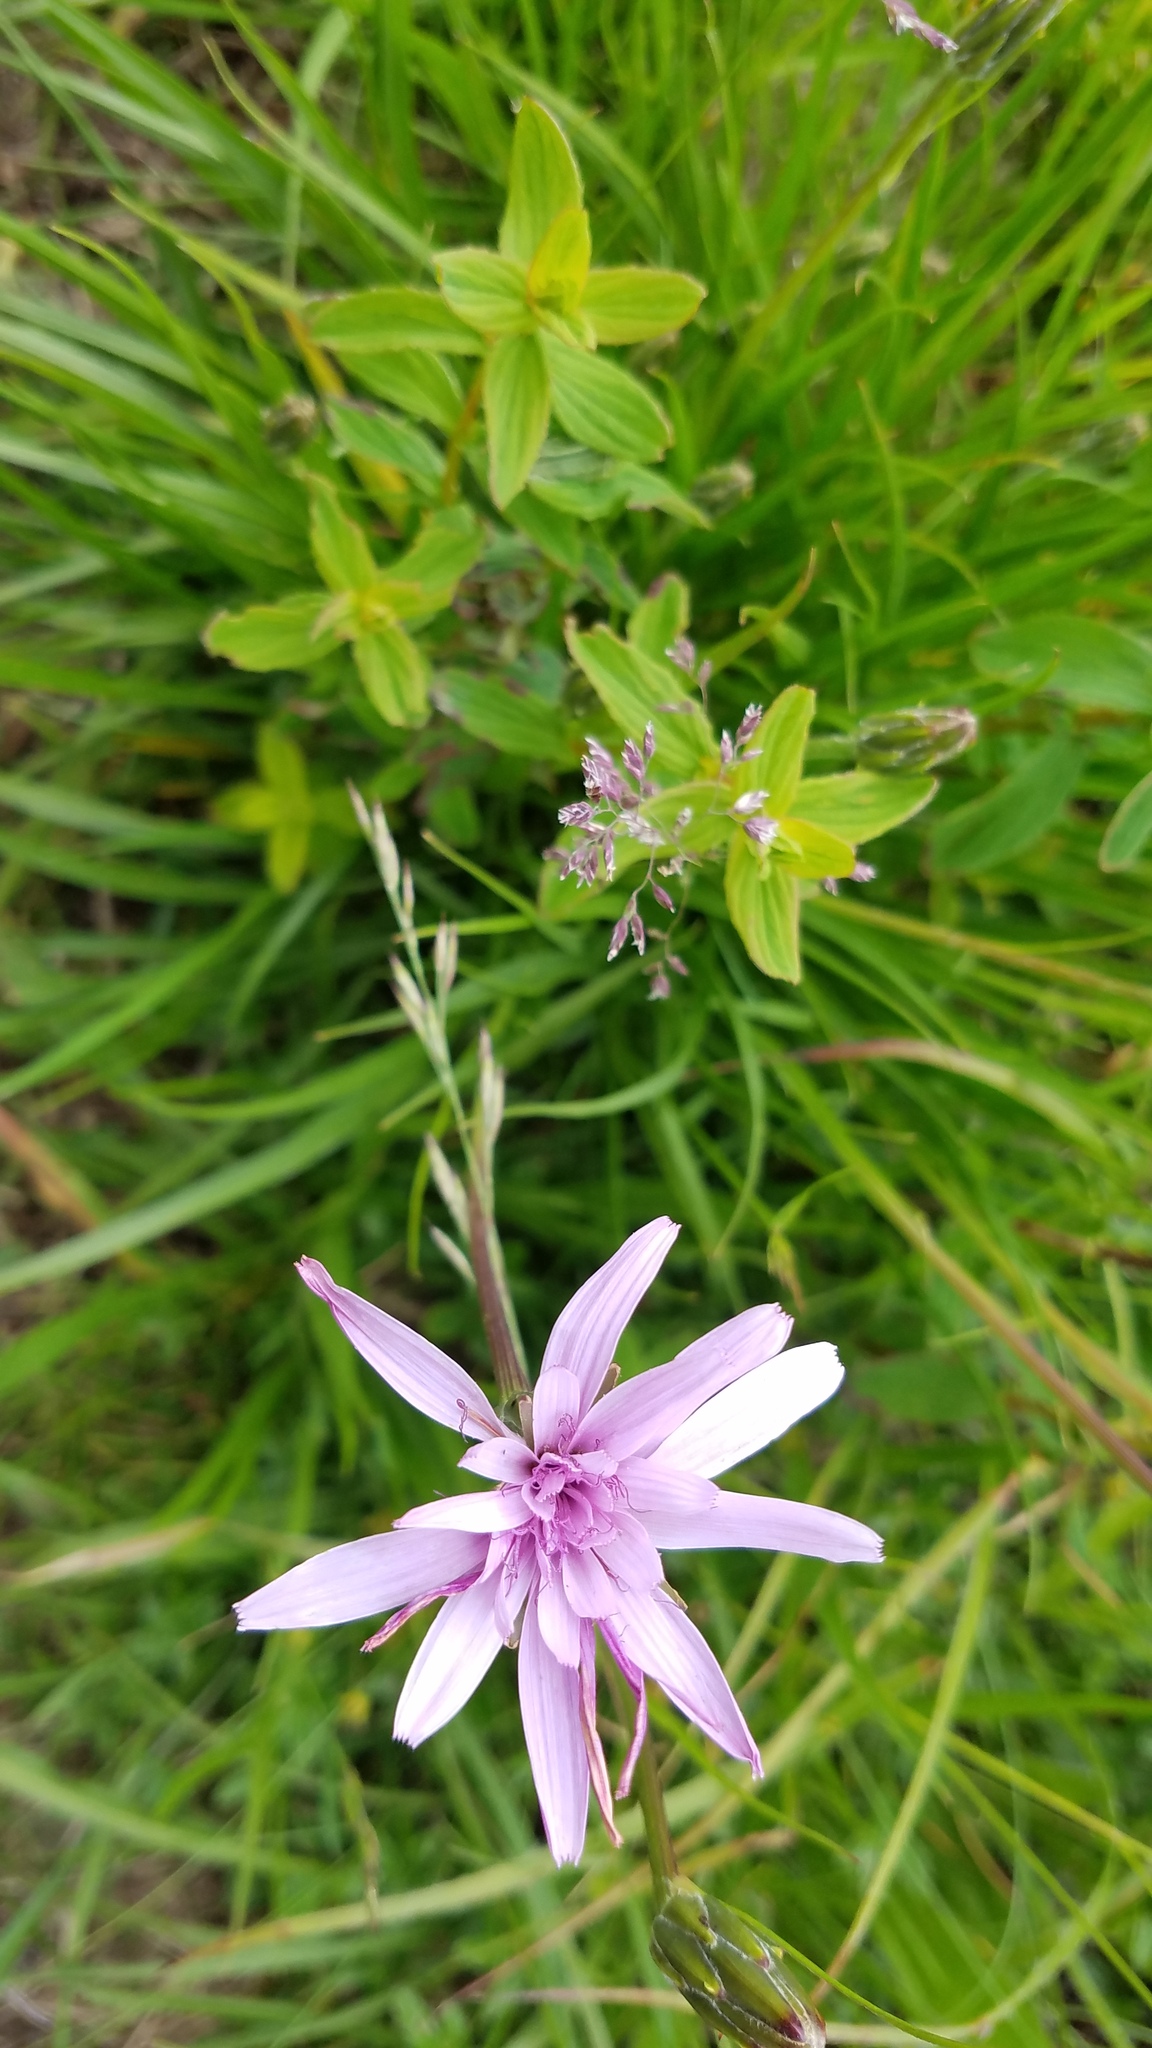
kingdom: Plantae
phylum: Tracheophyta
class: Magnoliopsida
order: Asterales
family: Asteraceae
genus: Scorzonera
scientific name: Scorzonera rosea
